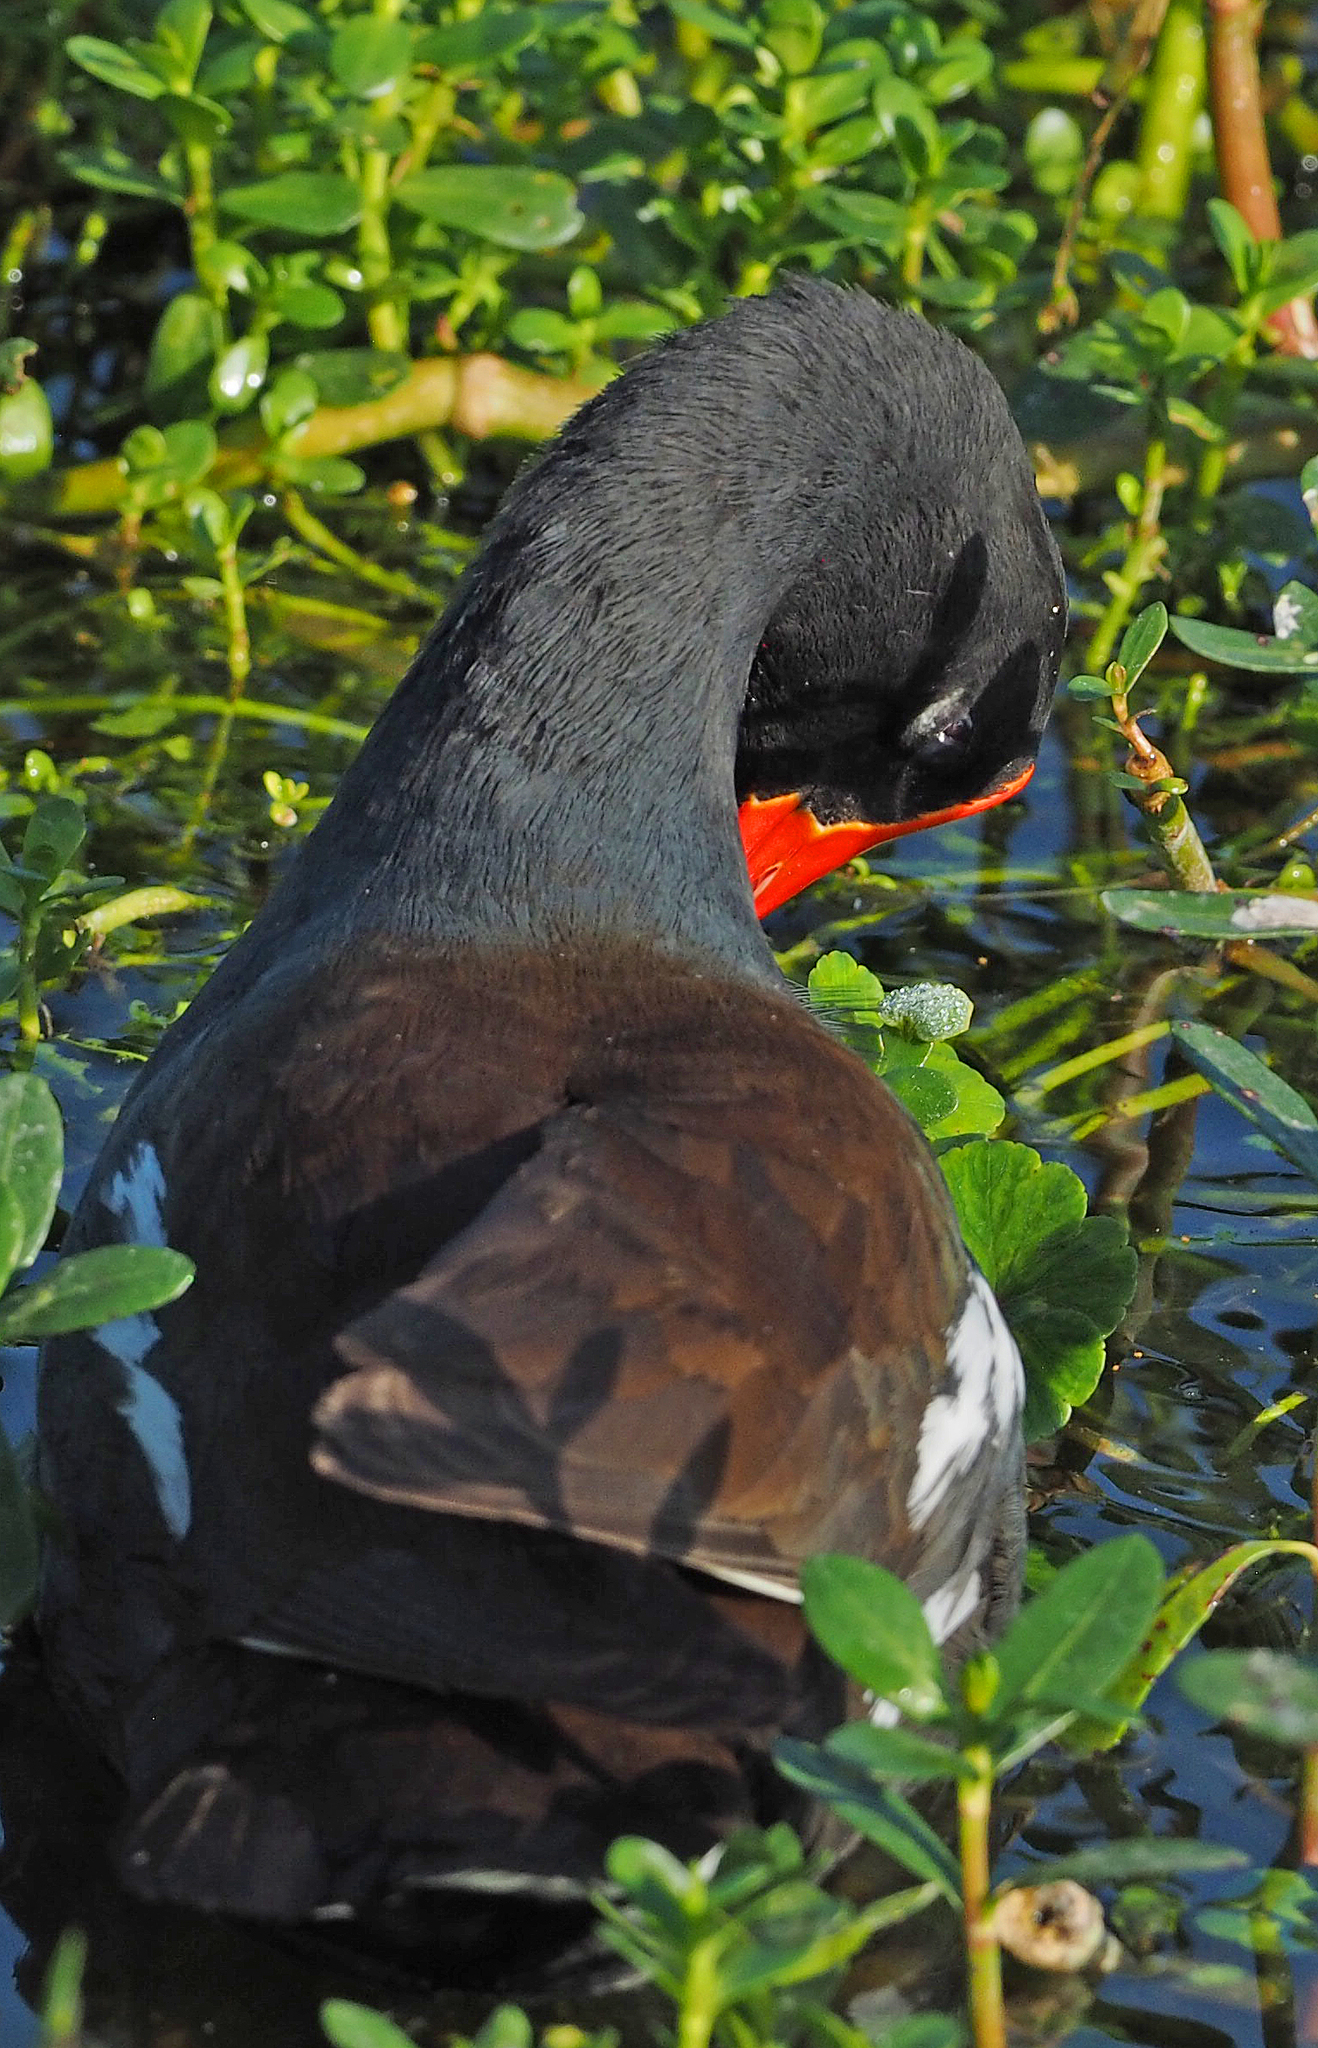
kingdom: Animalia
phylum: Chordata
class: Aves
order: Gruiformes
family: Rallidae
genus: Gallinula
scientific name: Gallinula chloropus
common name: Common moorhen
